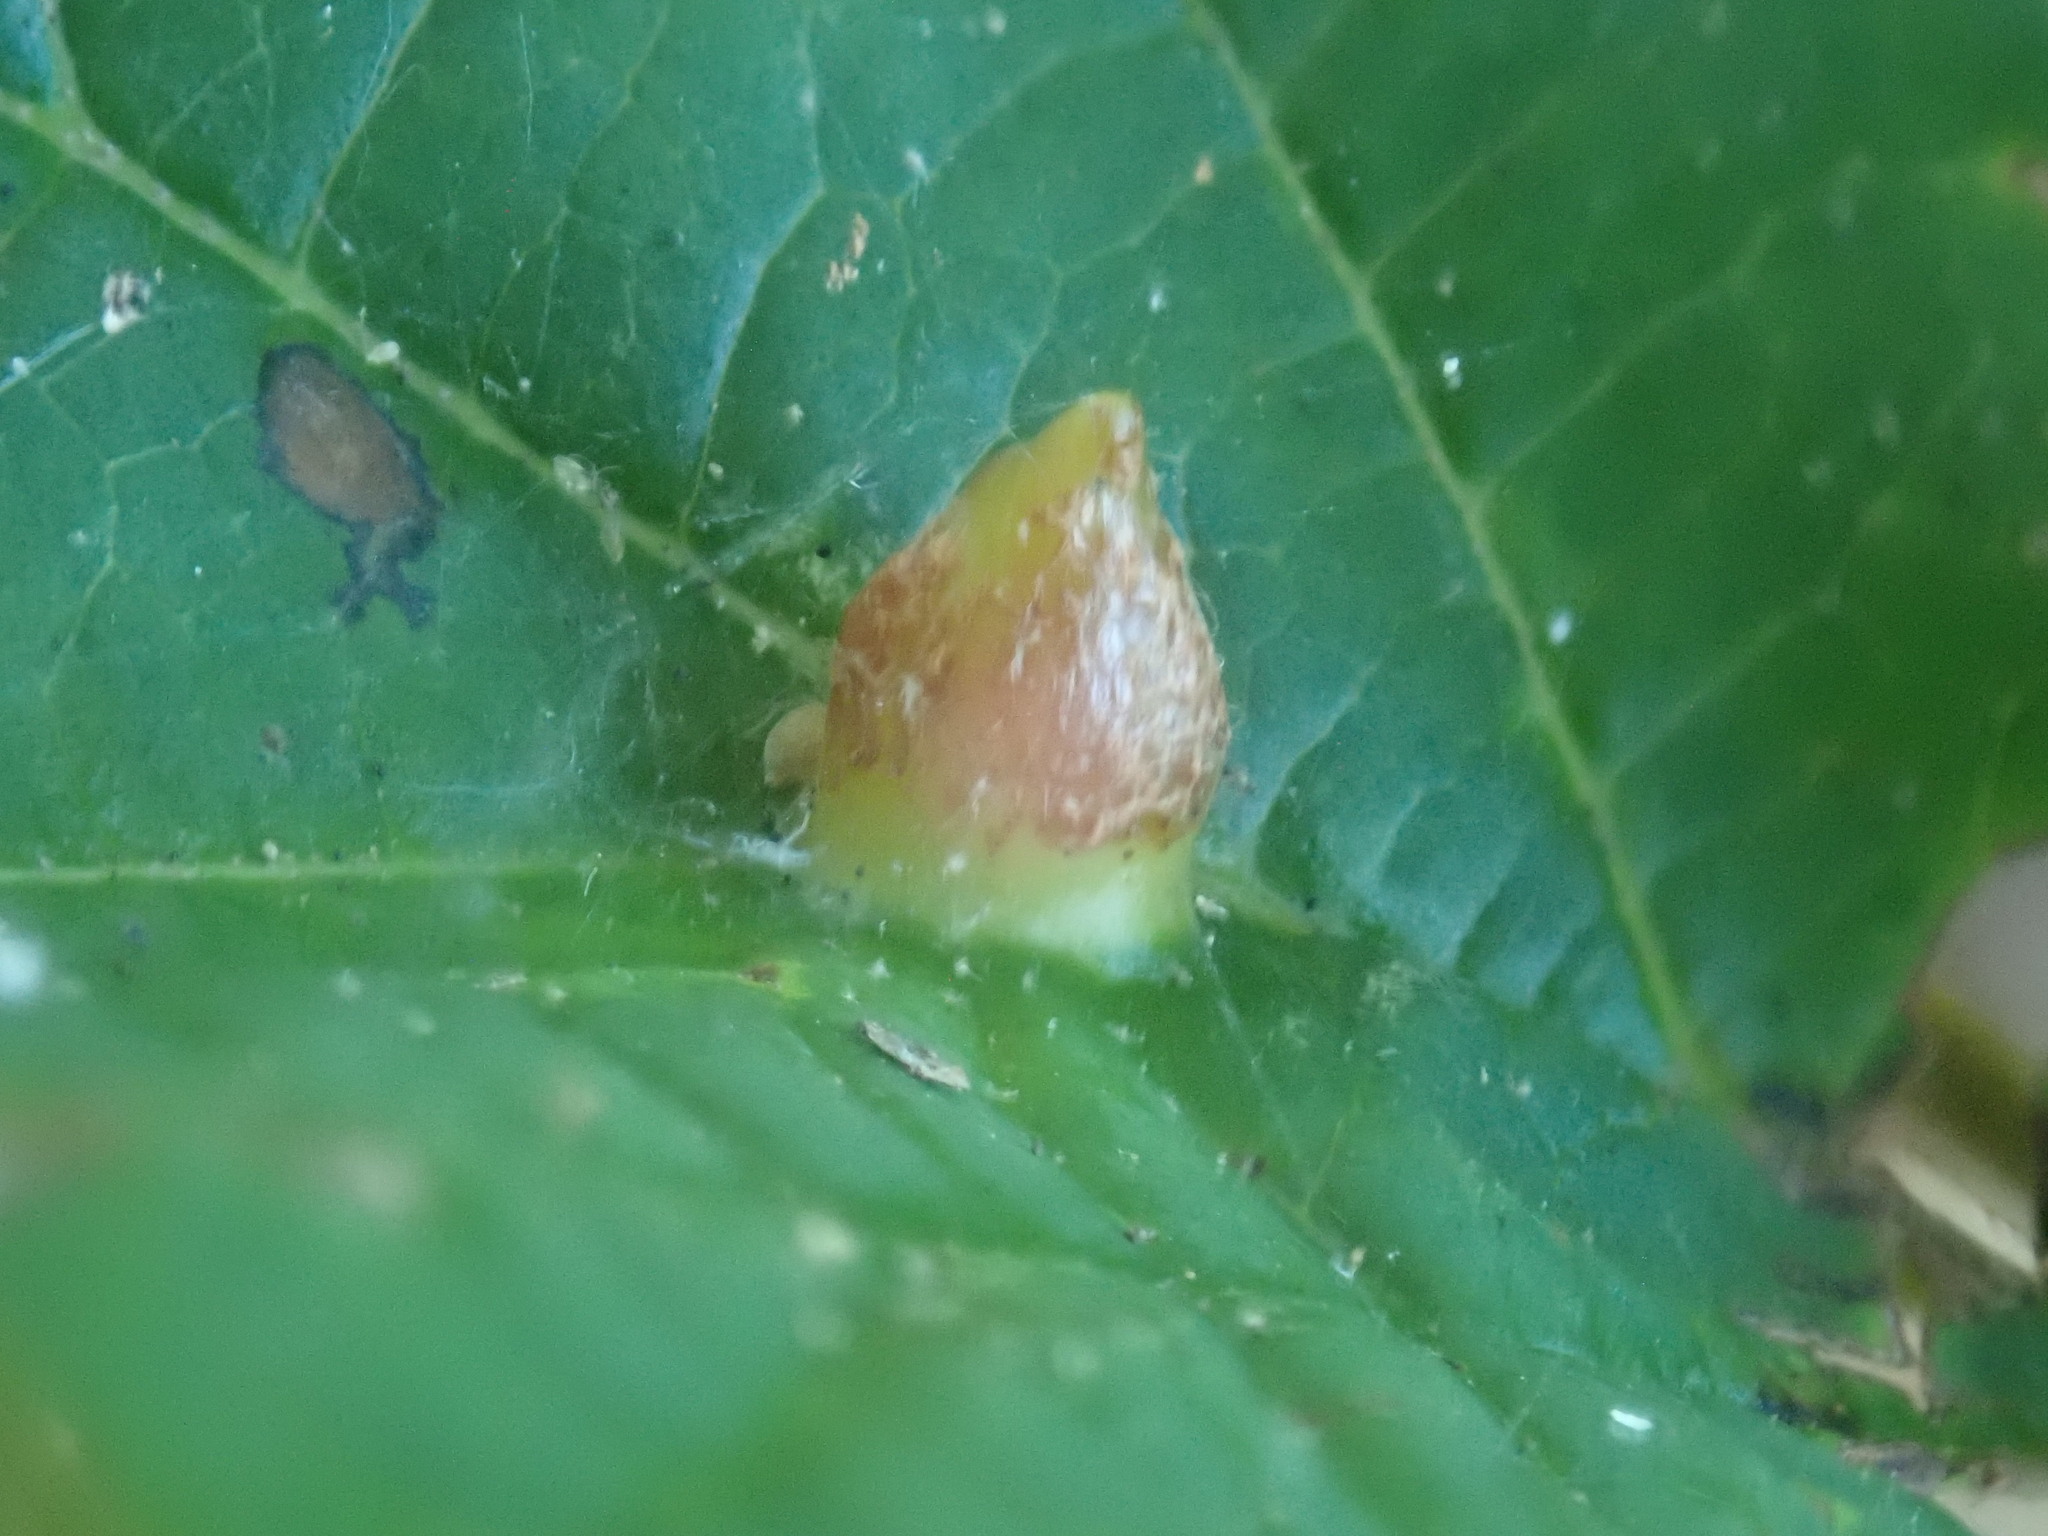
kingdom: Animalia
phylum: Arthropoda
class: Insecta
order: Hemiptera
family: Aphididae
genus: Hormaphis
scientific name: Hormaphis hamamelidis
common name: Witch-hazel cone gall aphid
